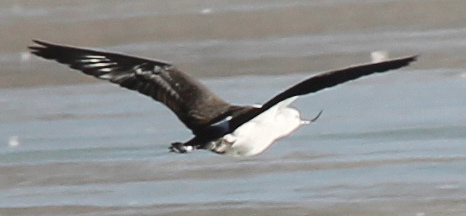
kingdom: Animalia
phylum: Chordata
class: Aves
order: Charadriiformes
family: Recurvirostridae
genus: Recurvirostra
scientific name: Recurvirostra andina
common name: Andean avocet
